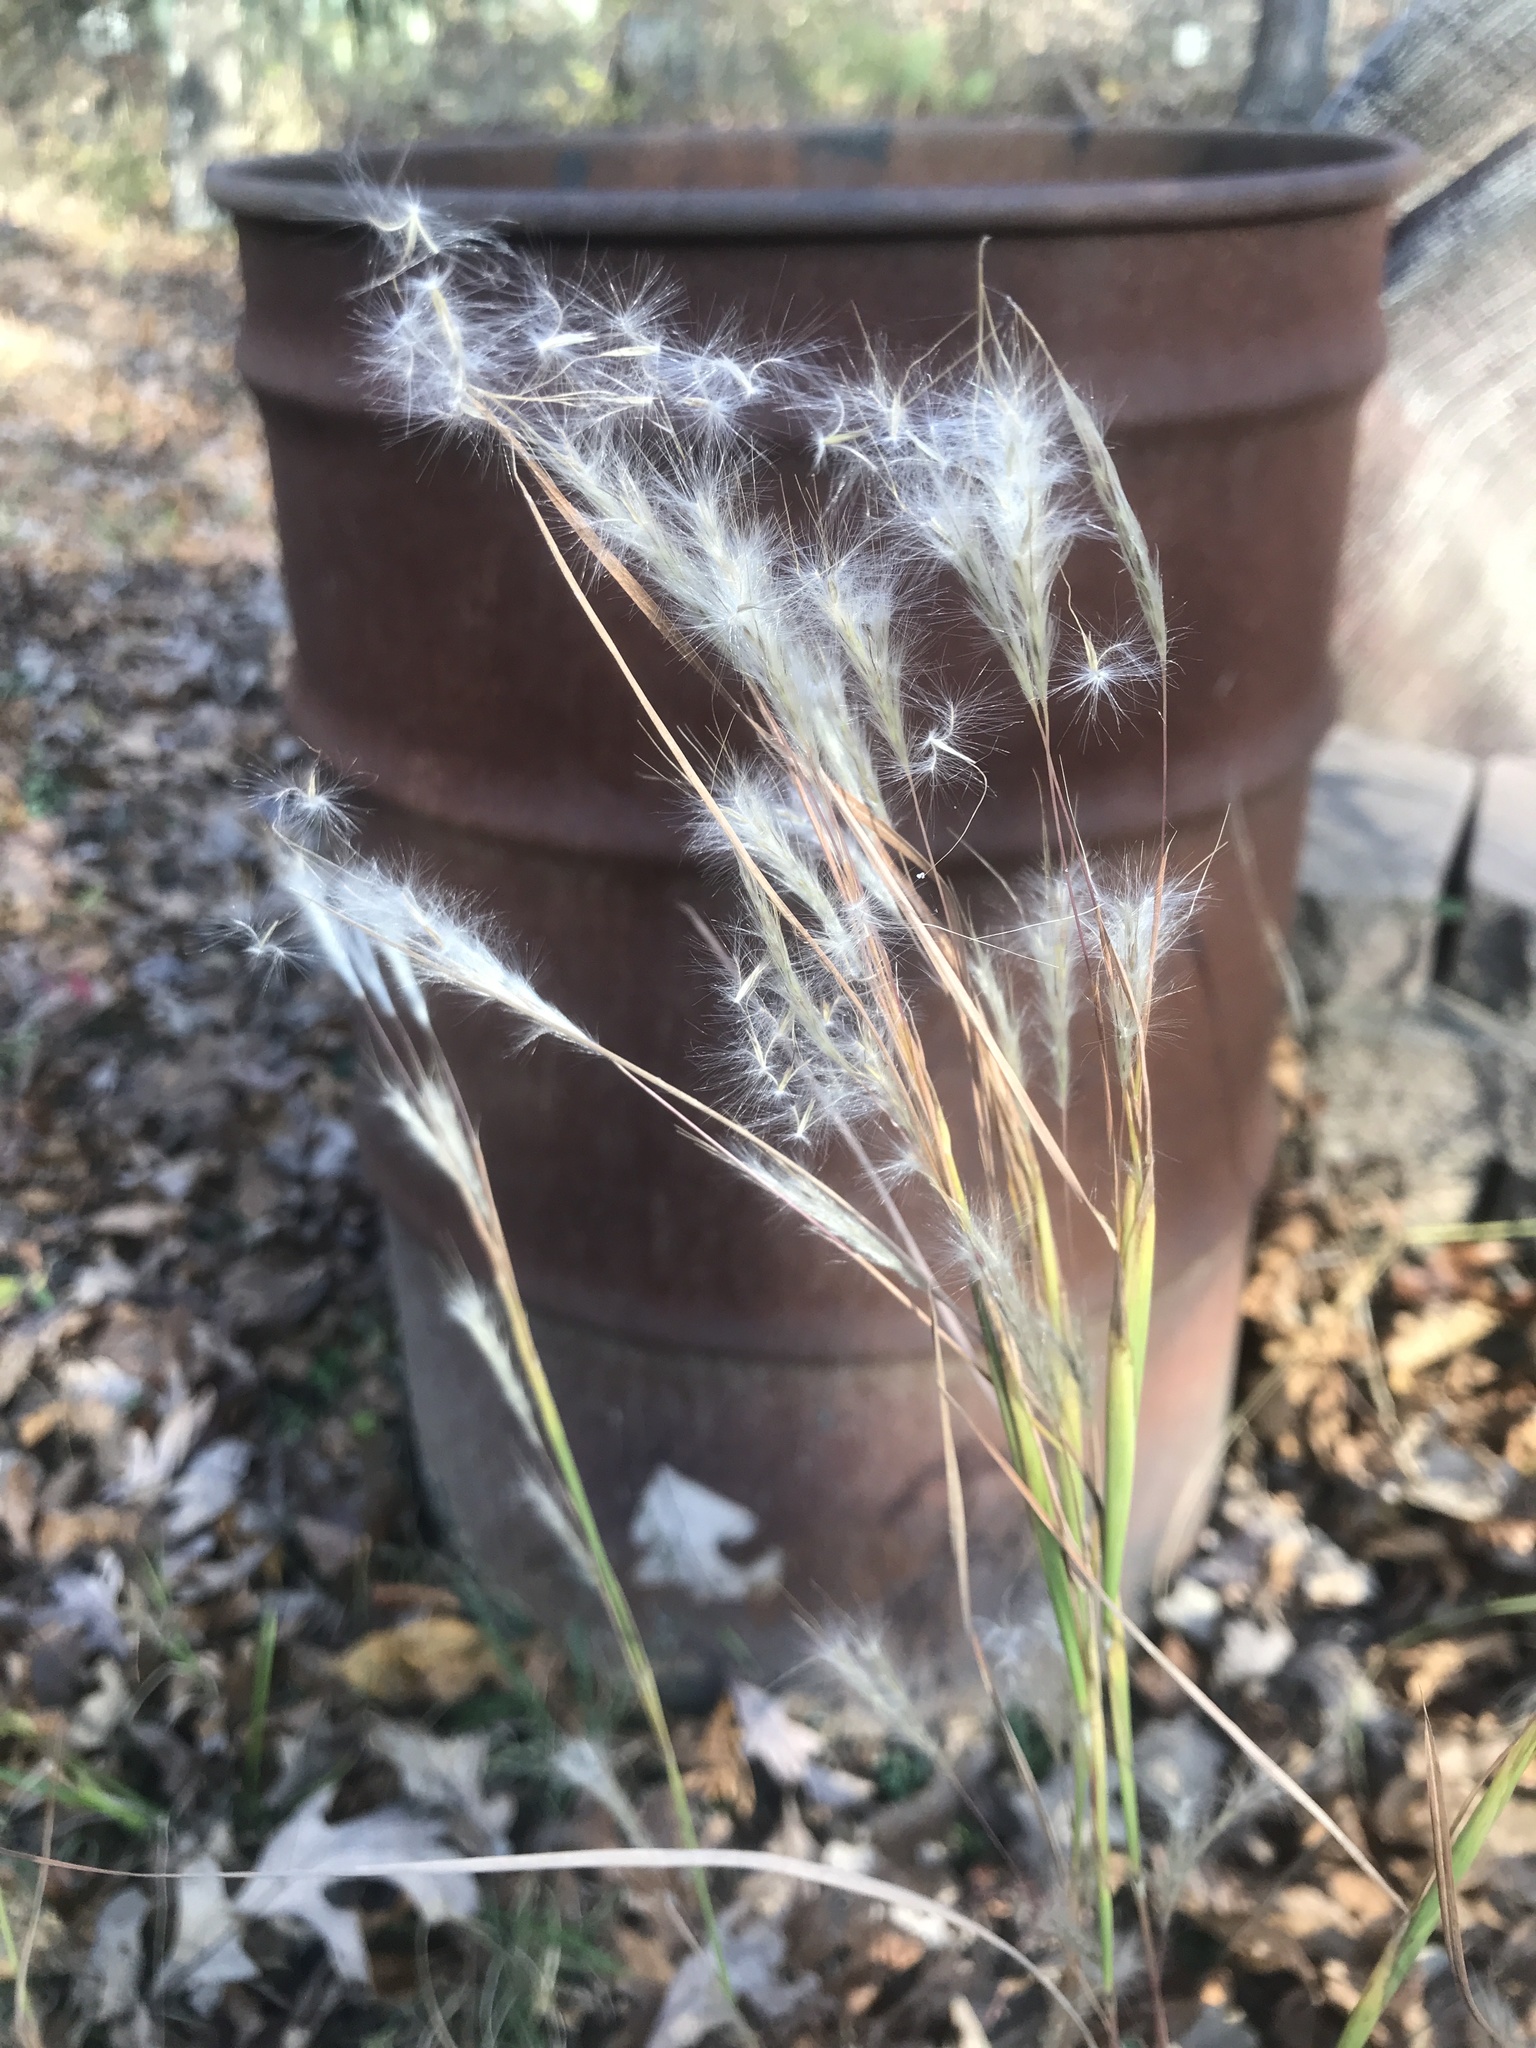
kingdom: Plantae
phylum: Tracheophyta
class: Liliopsida
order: Poales
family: Poaceae
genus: Andropogon
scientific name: Andropogon ternarius
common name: Split bluestem
